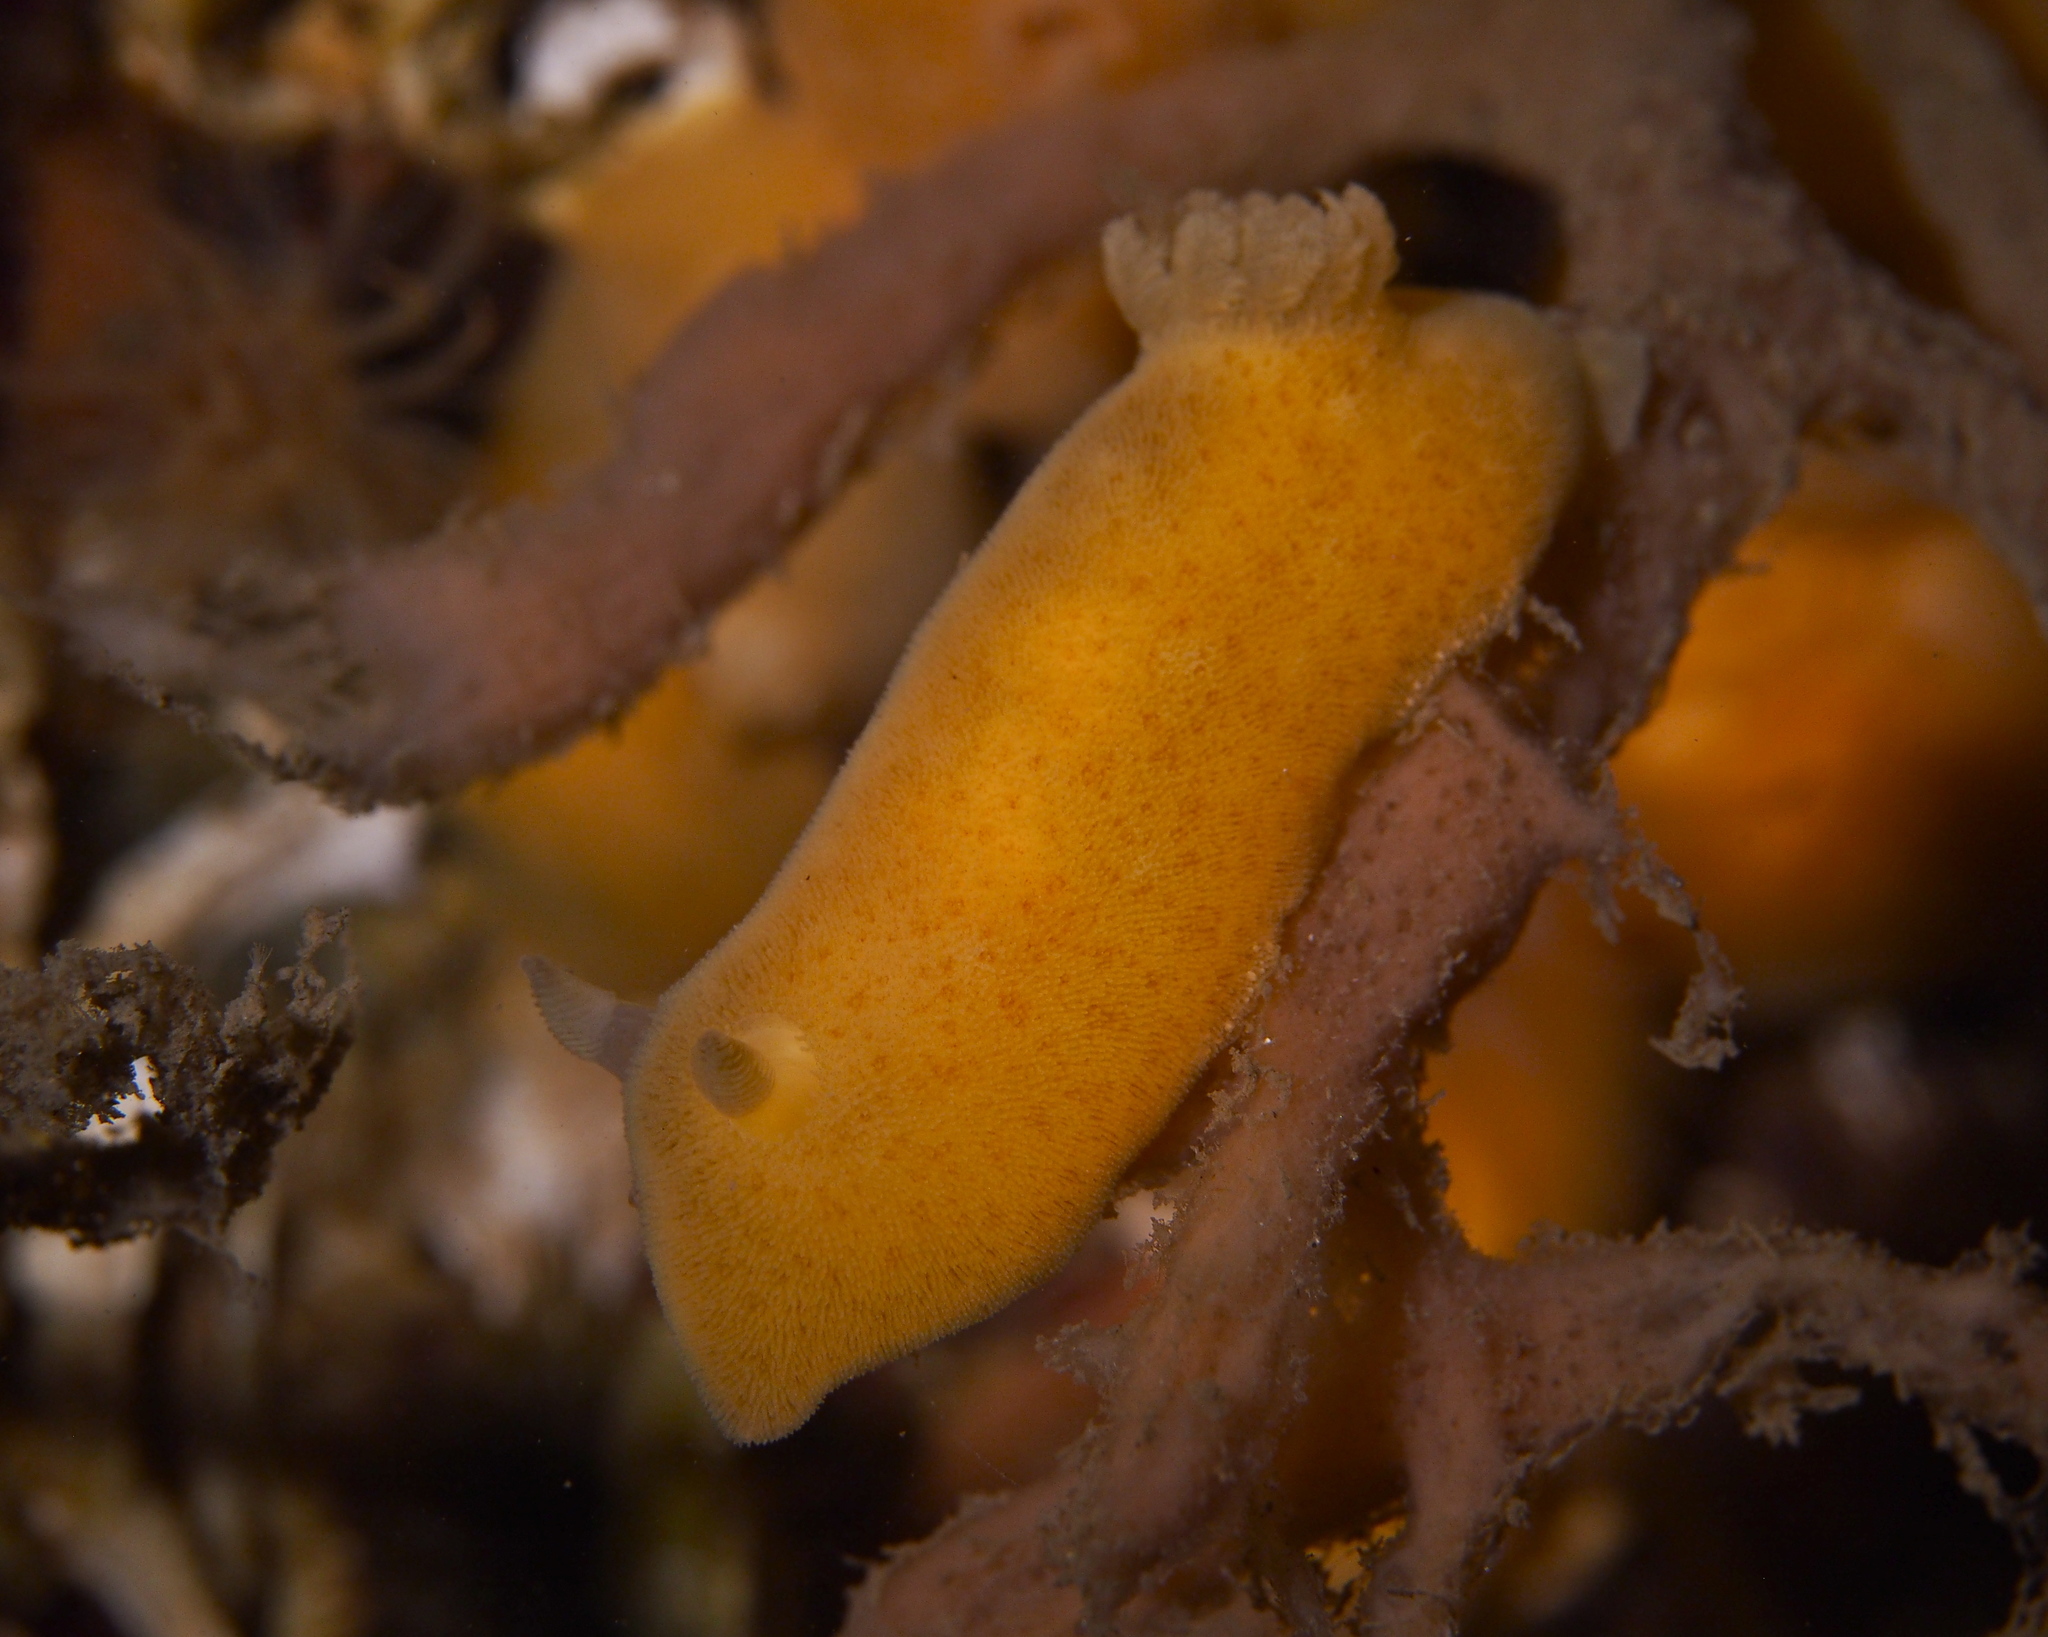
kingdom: Animalia
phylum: Mollusca
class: Gastropoda
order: Nudibranchia
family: Discodorididae
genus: Jorunna
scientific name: Jorunna tomentosa
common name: Grey sea slug
